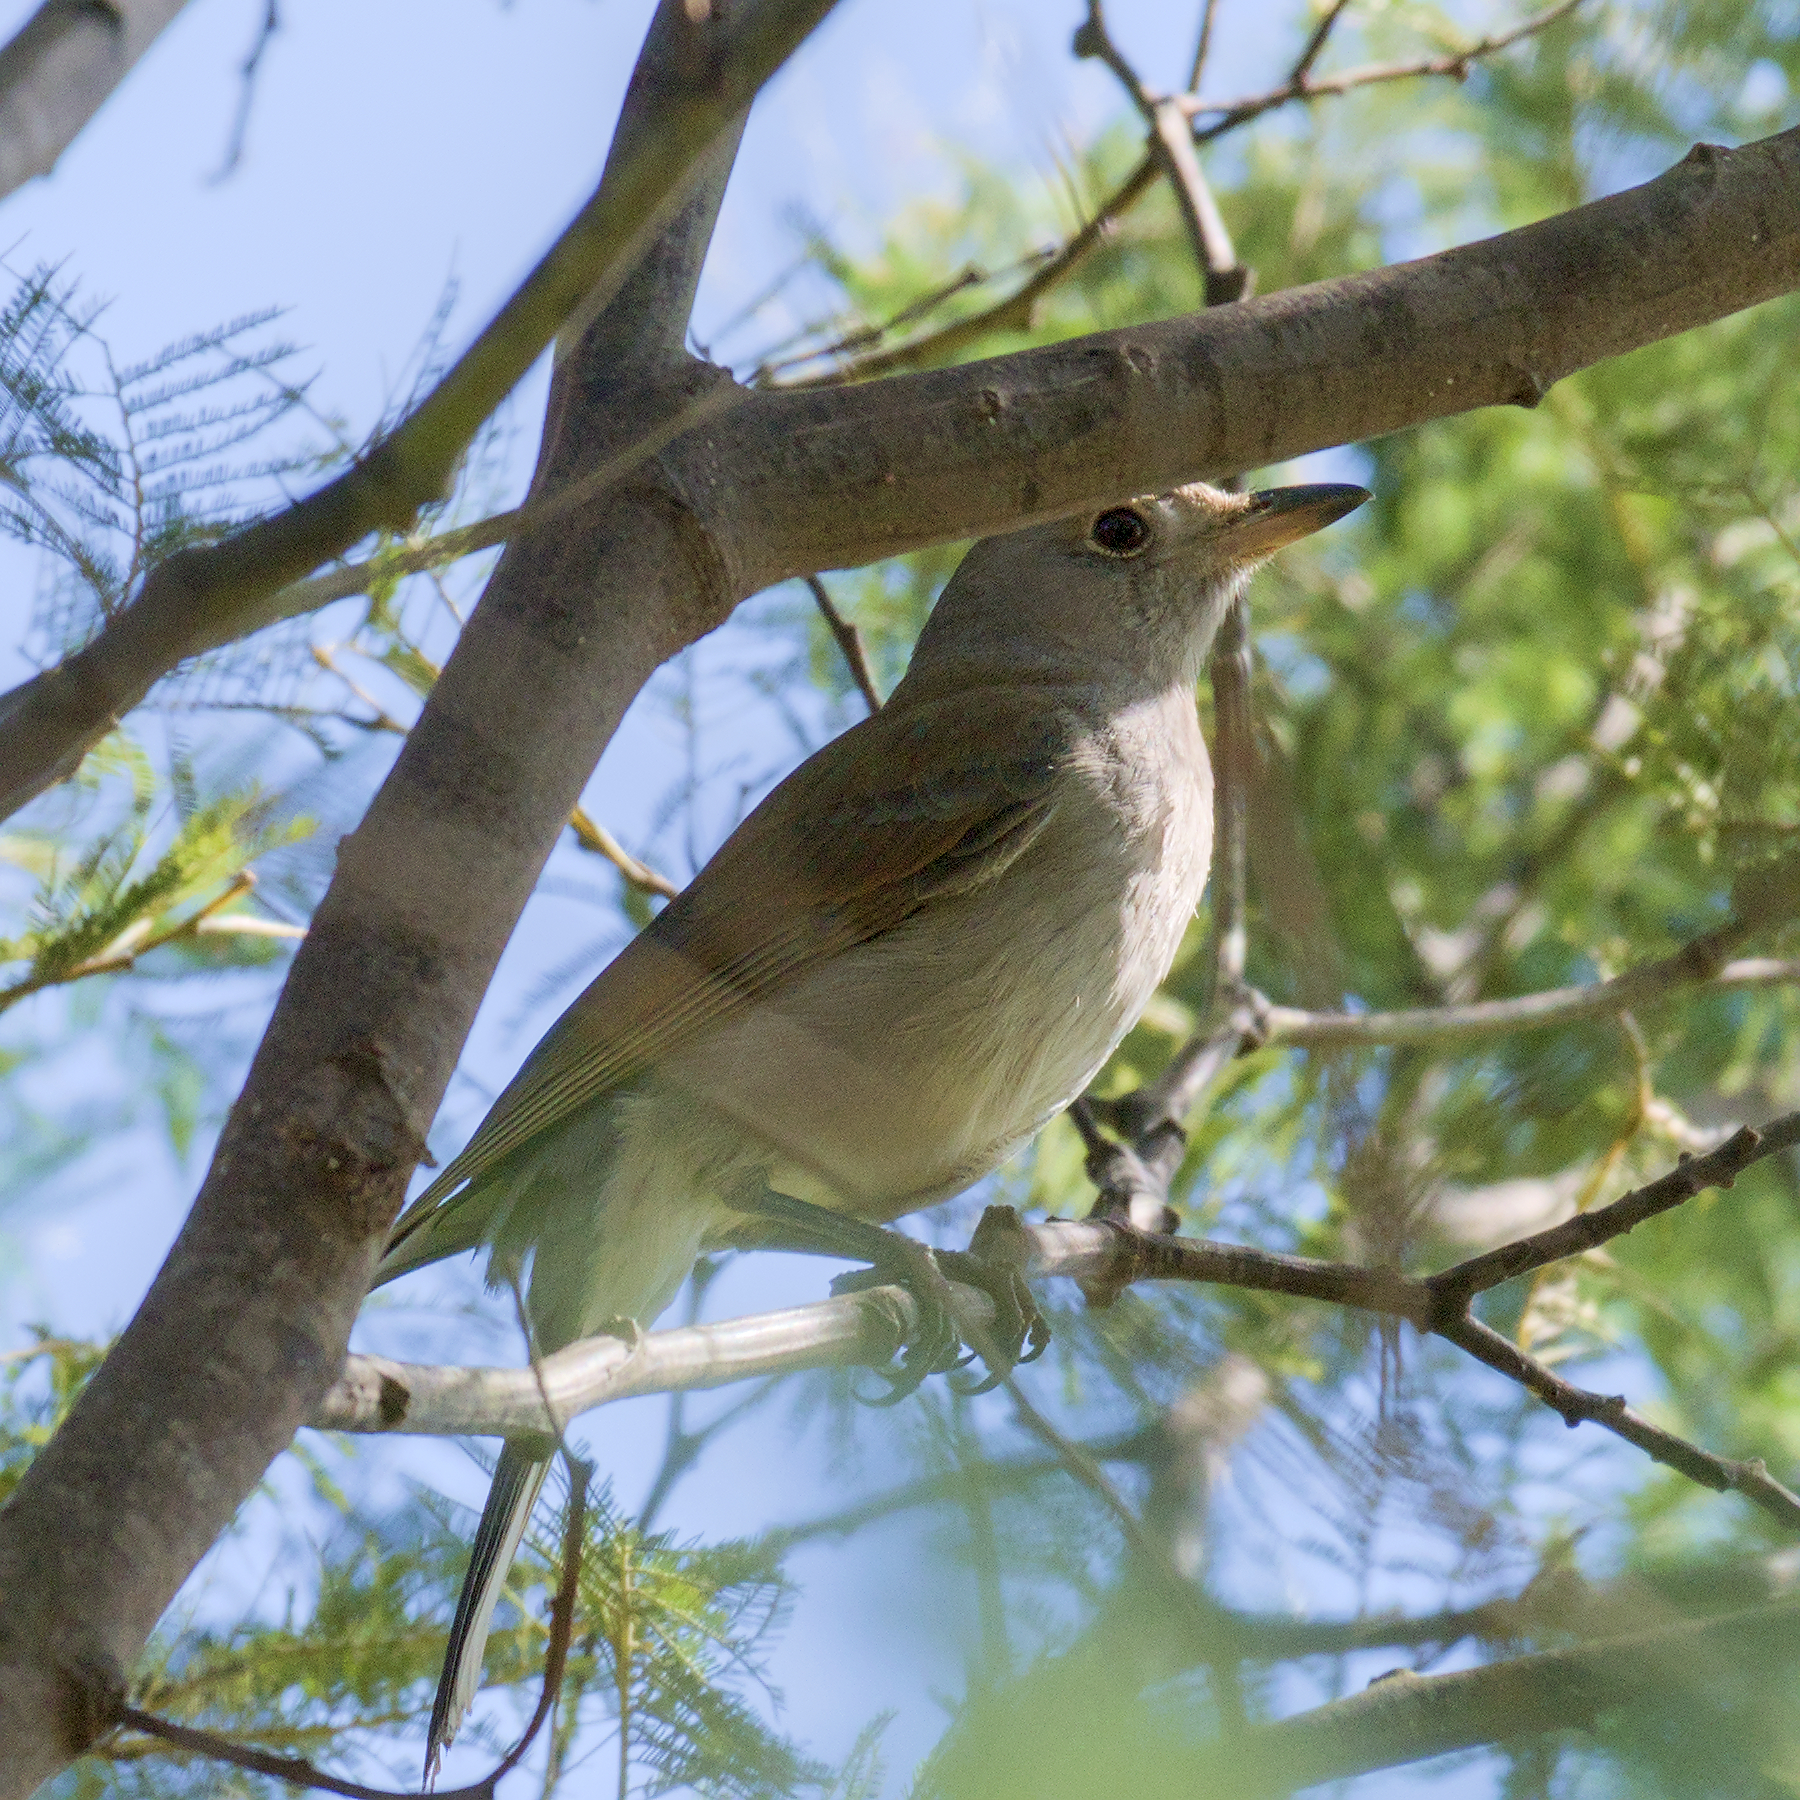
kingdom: Animalia
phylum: Chordata
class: Aves
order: Passeriformes
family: Pachycephalidae
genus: Colluricincla
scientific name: Colluricincla harmonica
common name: Grey shrikethrush
